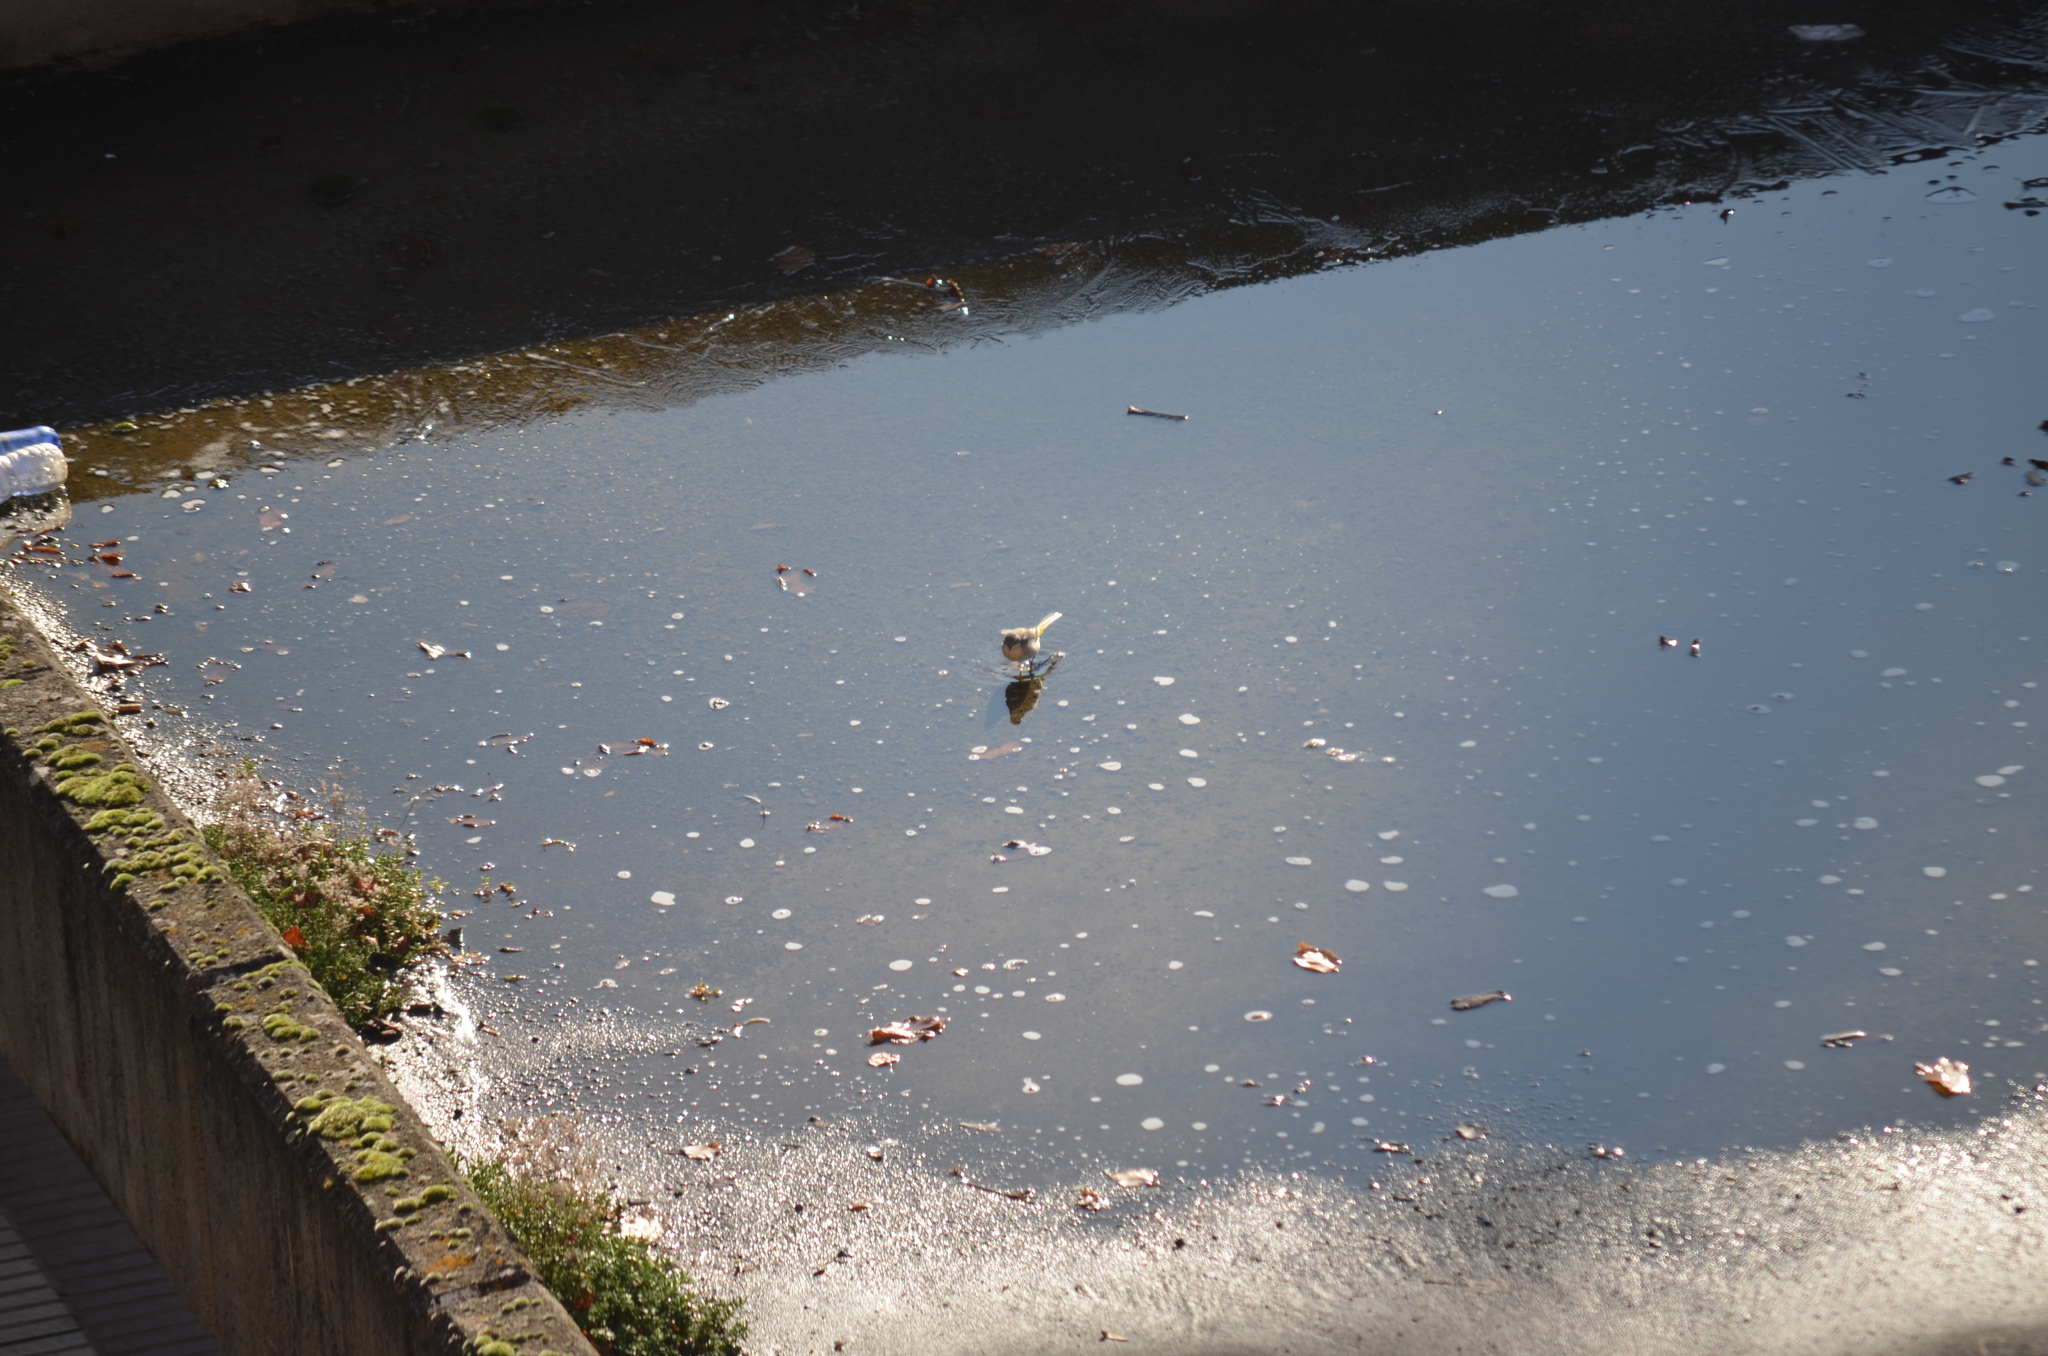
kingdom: Animalia
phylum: Chordata
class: Aves
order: Passeriformes
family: Motacillidae
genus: Motacilla
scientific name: Motacilla cinerea
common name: Grey wagtail
